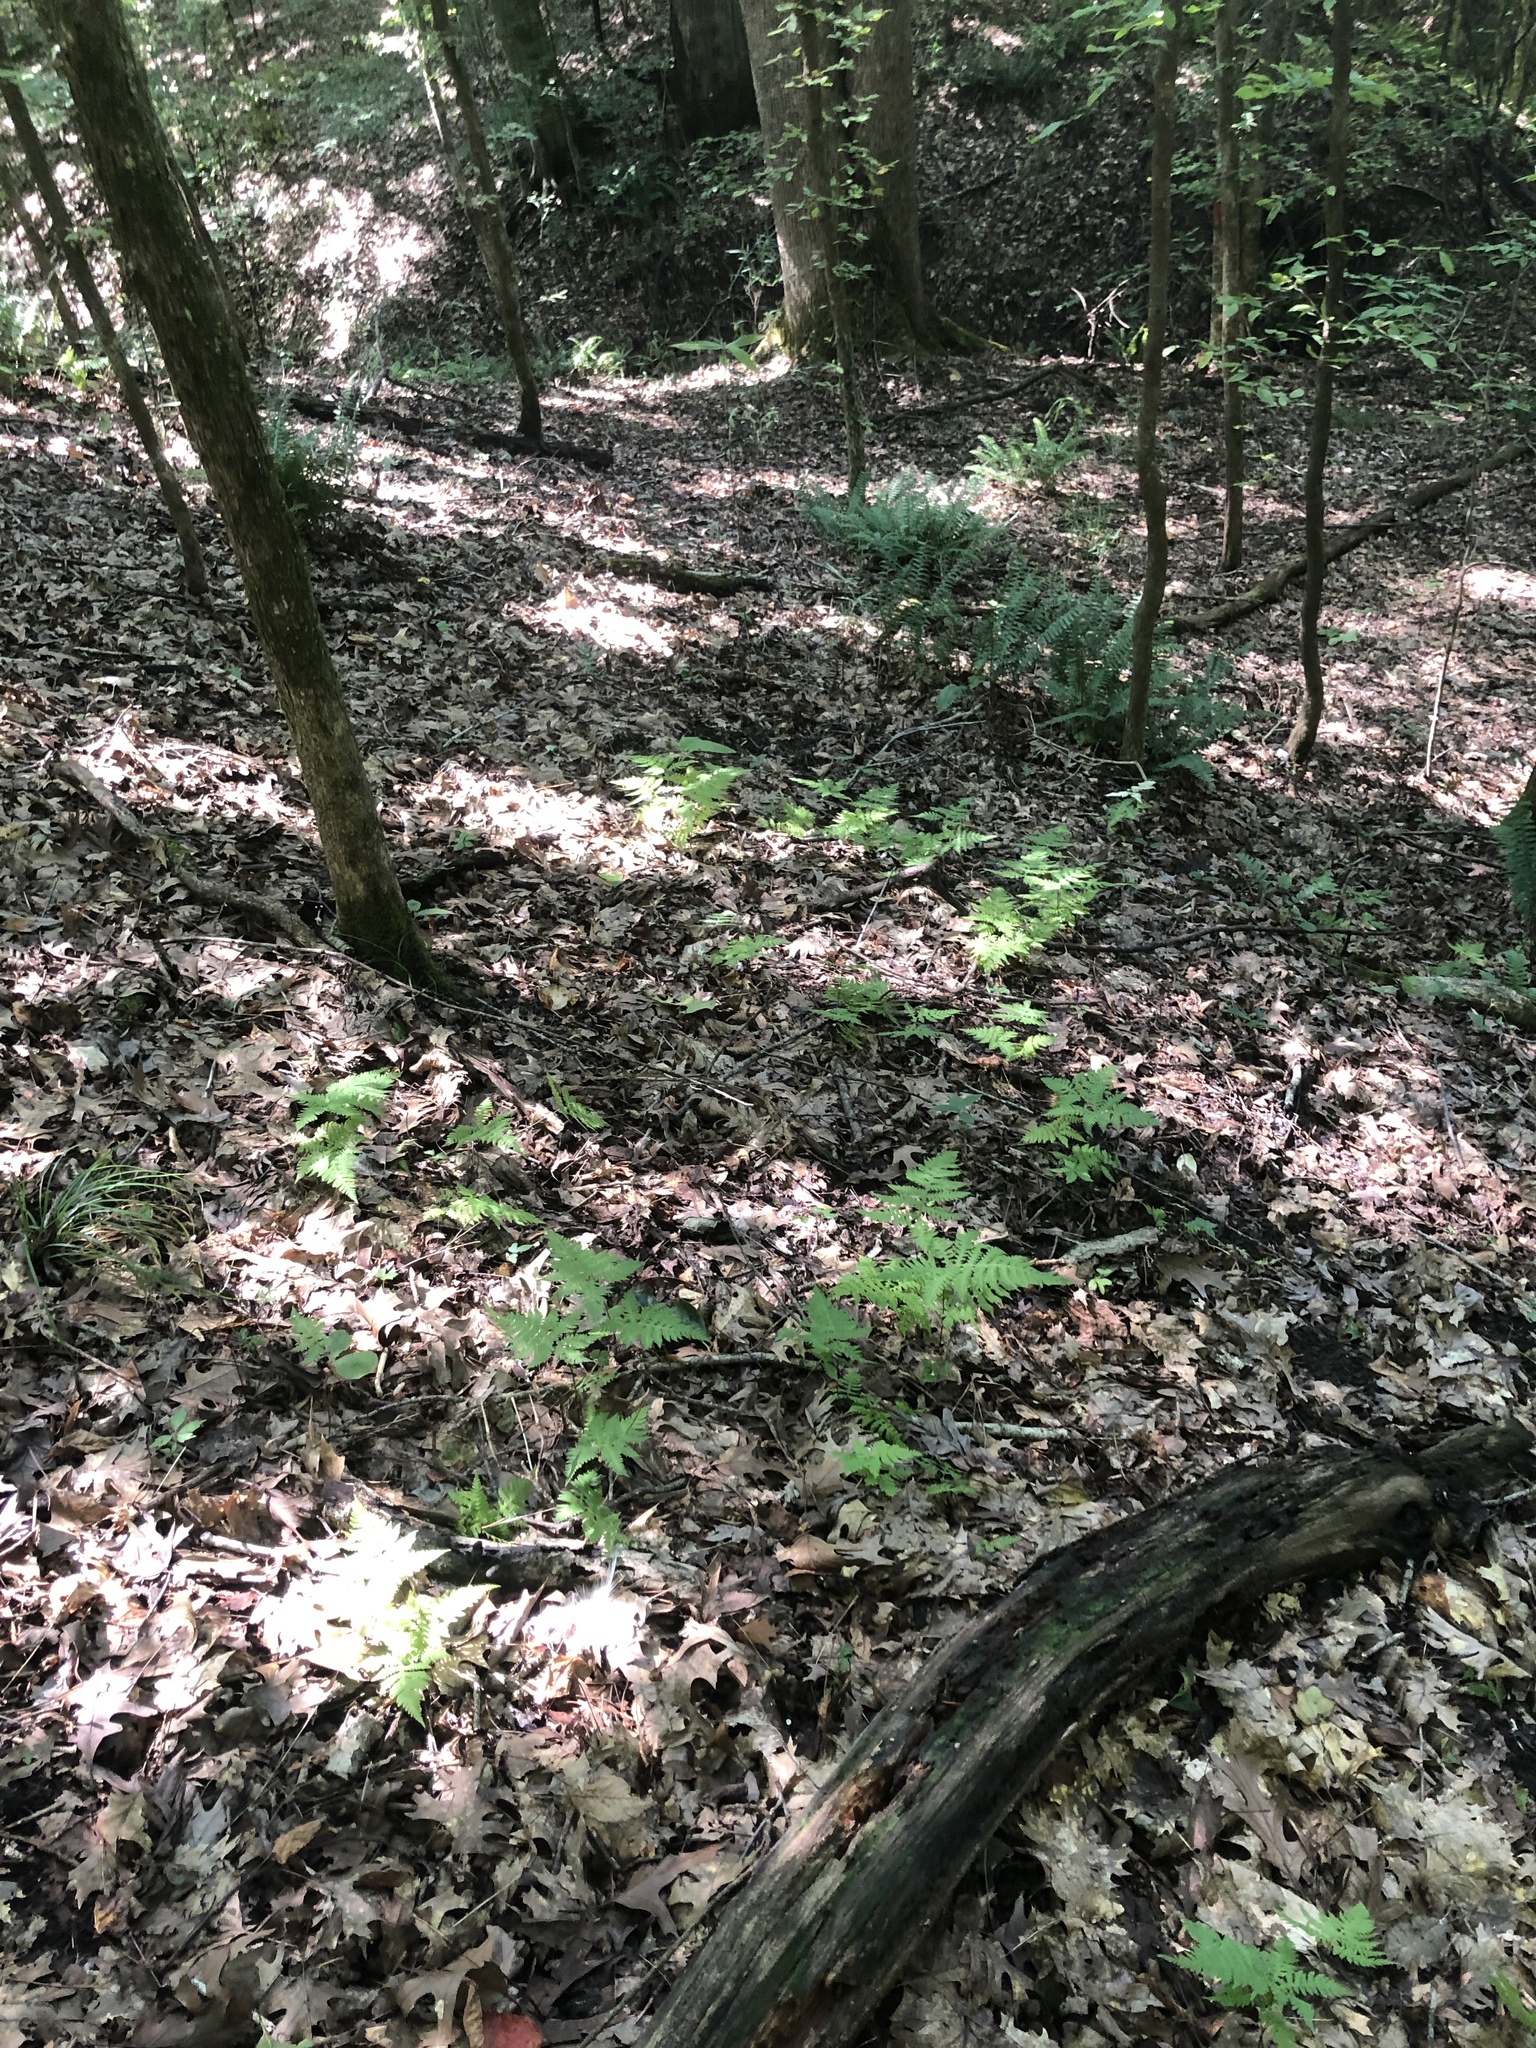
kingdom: Plantae
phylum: Tracheophyta
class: Polypodiopsida
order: Polypodiales
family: Thelypteridaceae
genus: Phegopteris
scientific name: Phegopteris hexagonoptera
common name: Broad beech fern
